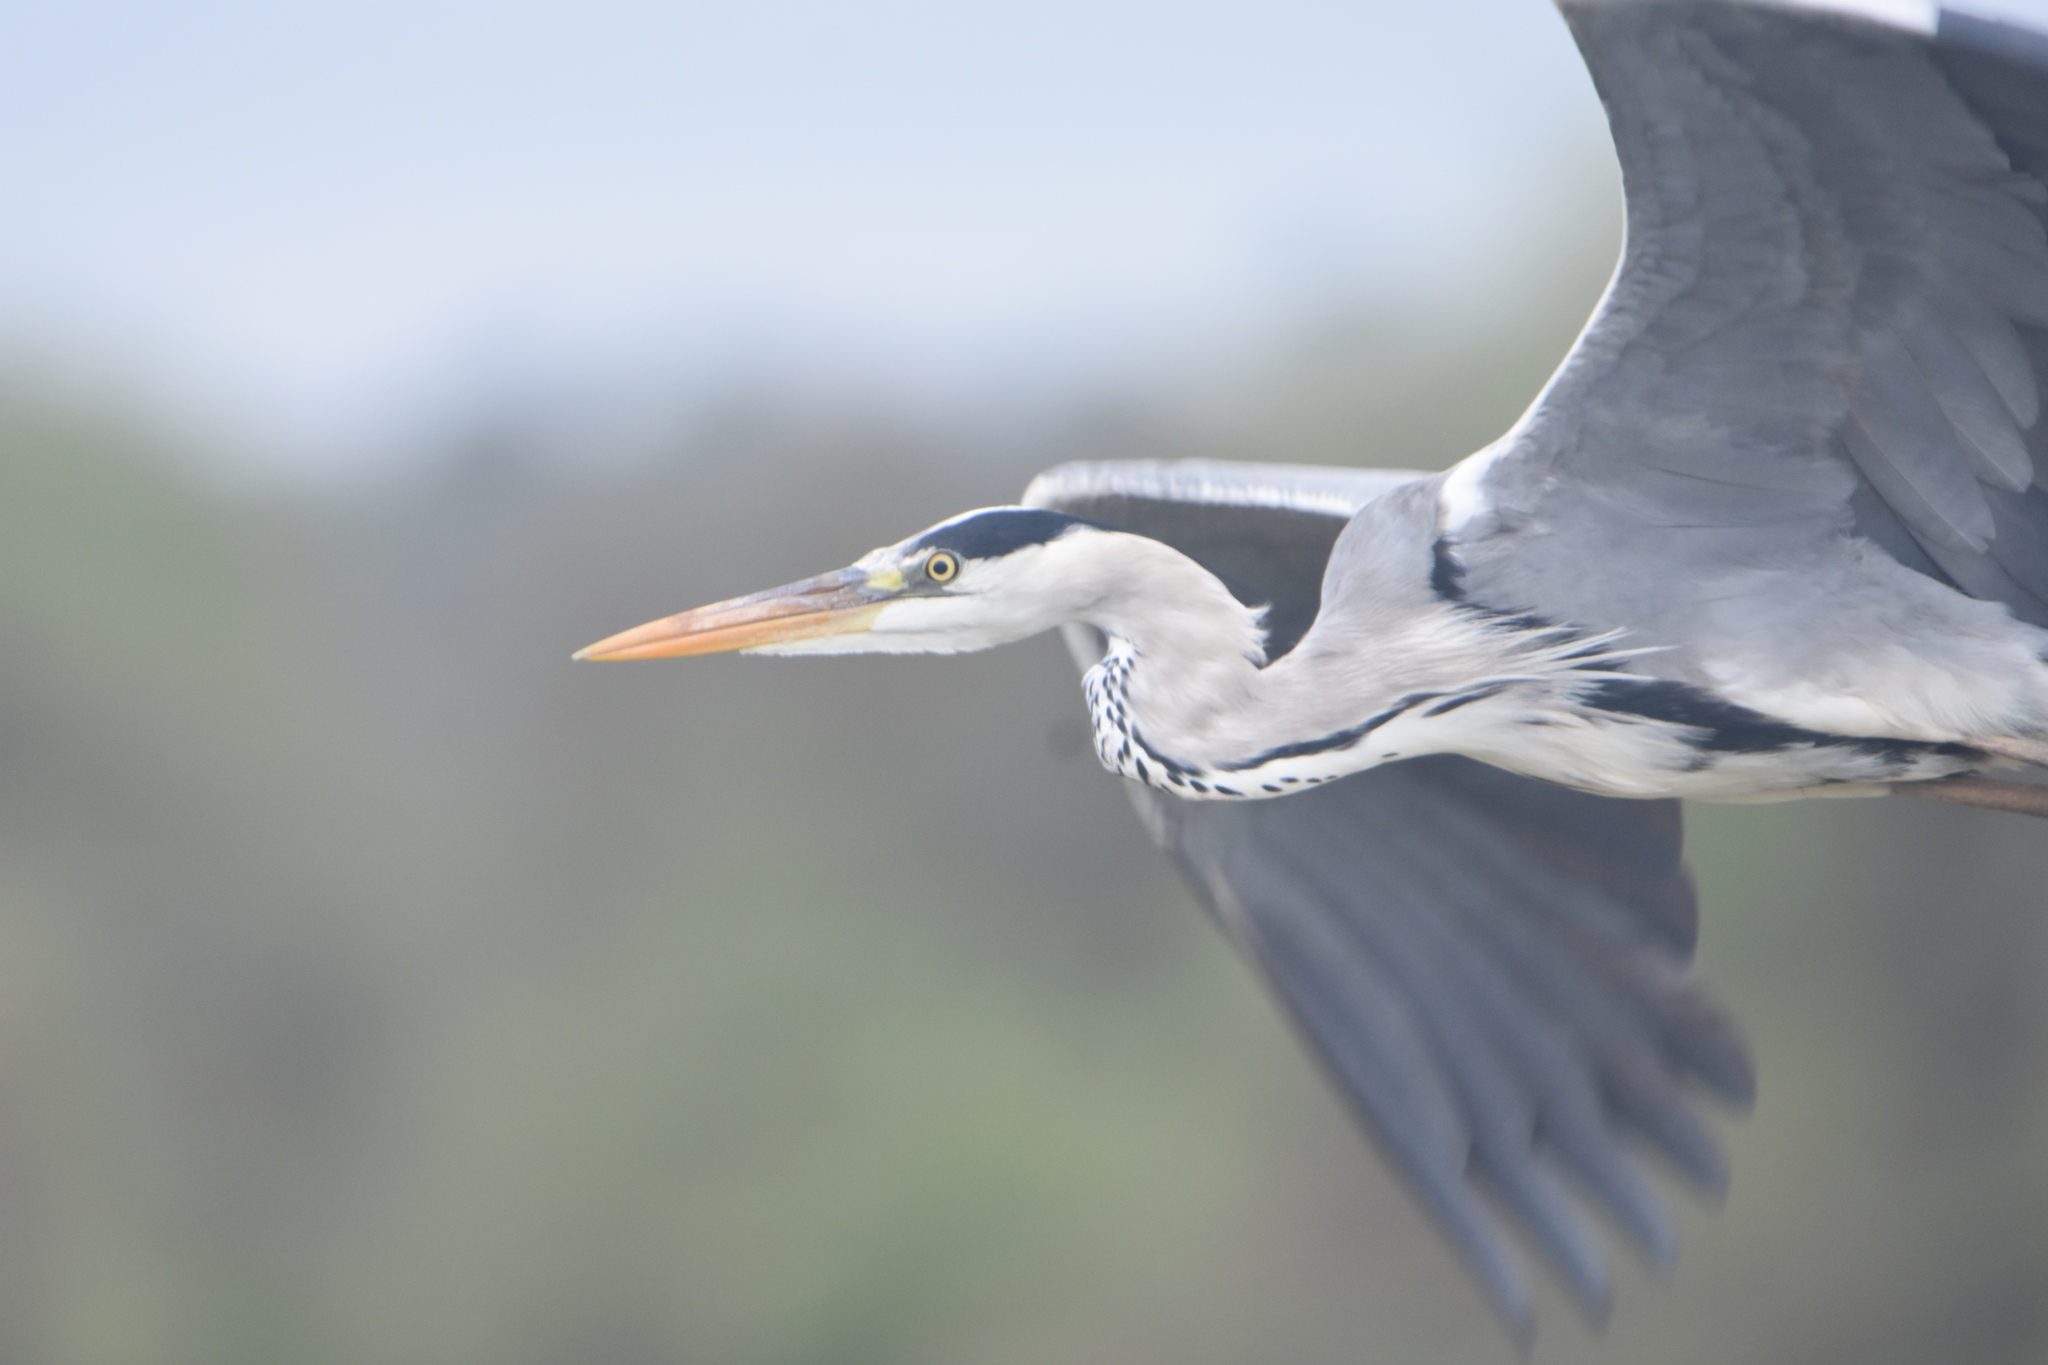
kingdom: Animalia
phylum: Chordata
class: Aves
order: Pelecaniformes
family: Ardeidae
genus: Ardea
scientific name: Ardea cinerea
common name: Grey heron
